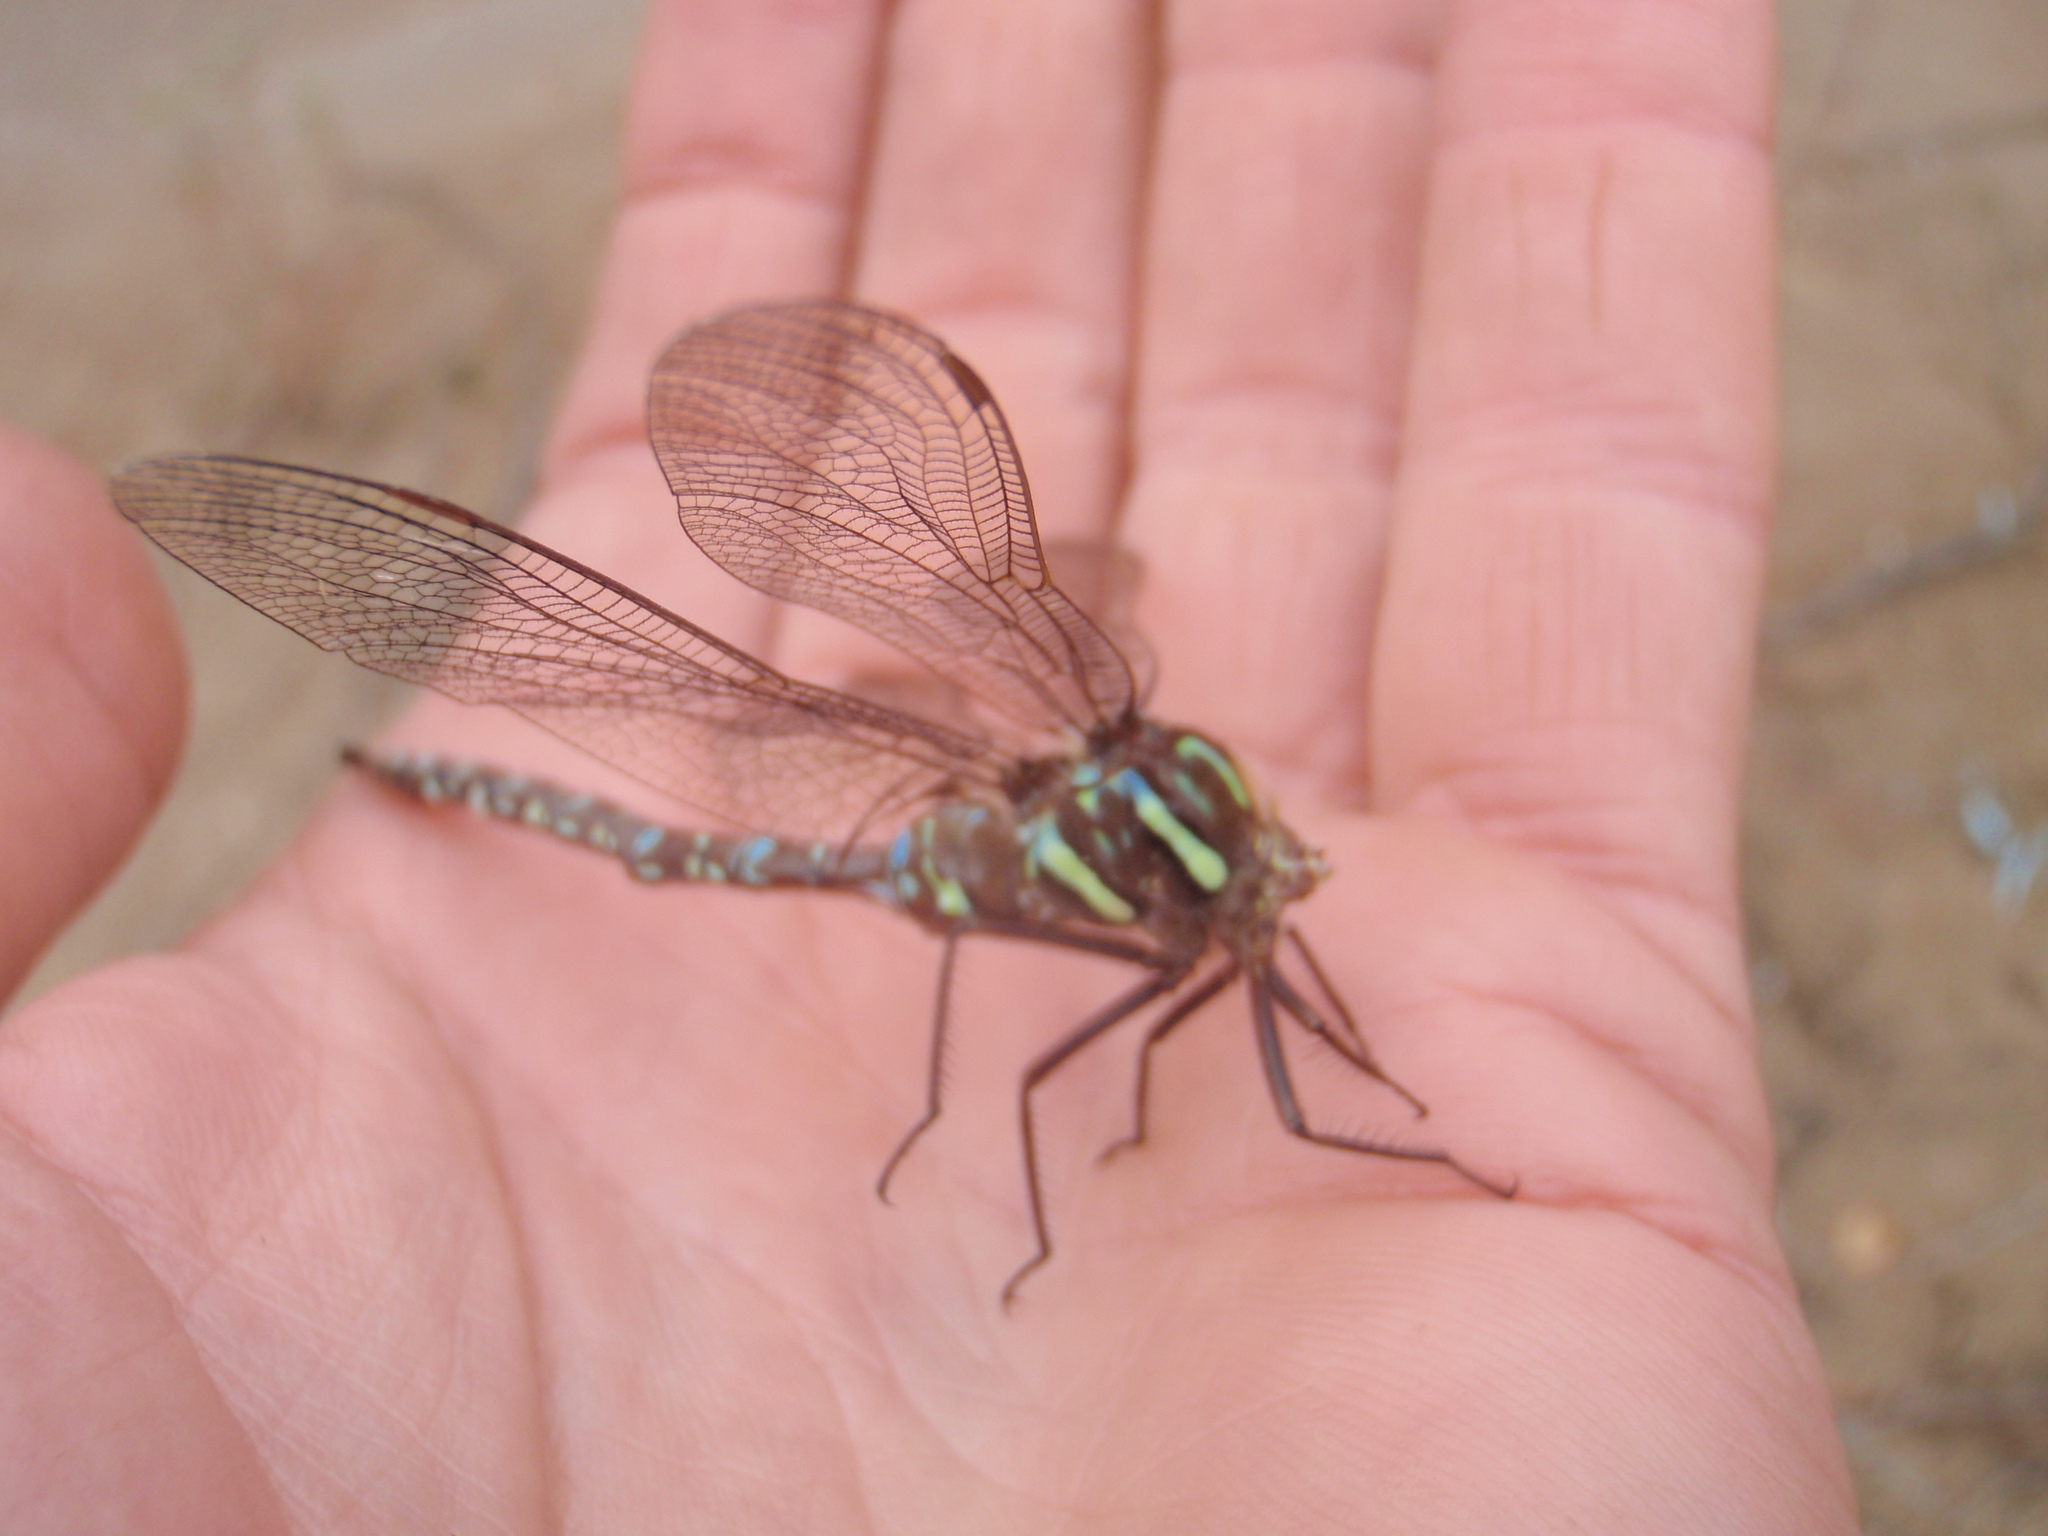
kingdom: Animalia
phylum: Arthropoda
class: Insecta
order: Odonata
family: Aeshnidae
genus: Aeshna
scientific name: Aeshna umbrosa
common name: Shadow darner
